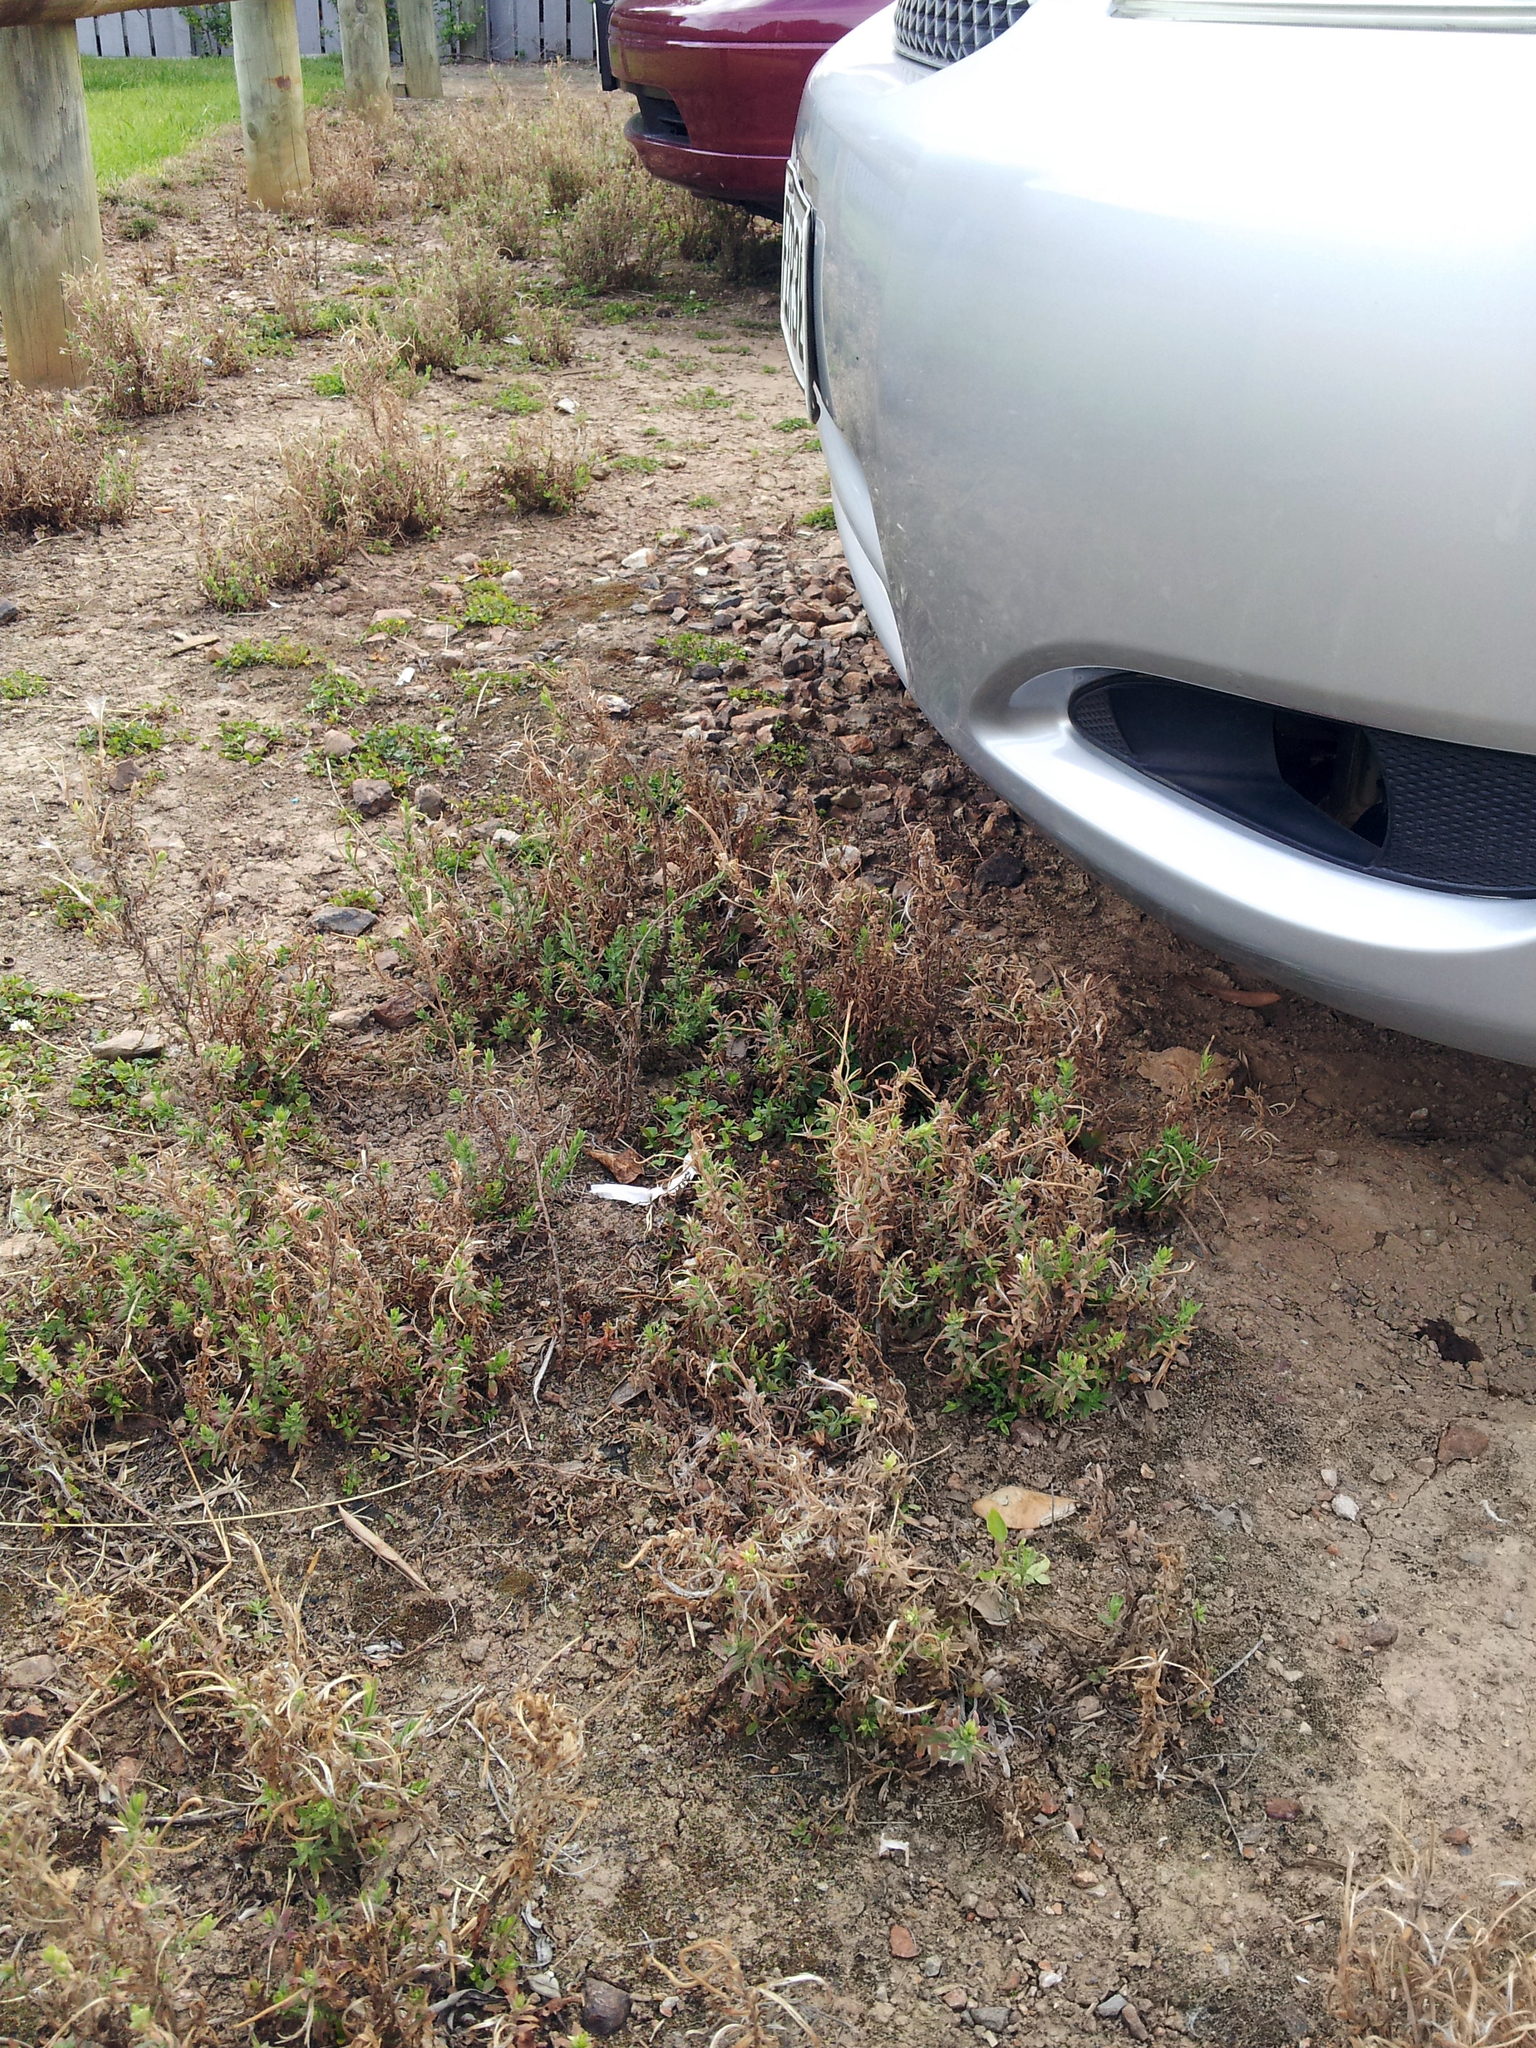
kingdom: Plantae
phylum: Tracheophyta
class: Magnoliopsida
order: Myrtales
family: Onagraceae
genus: Epilobium
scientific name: Epilobium hirtigerum
